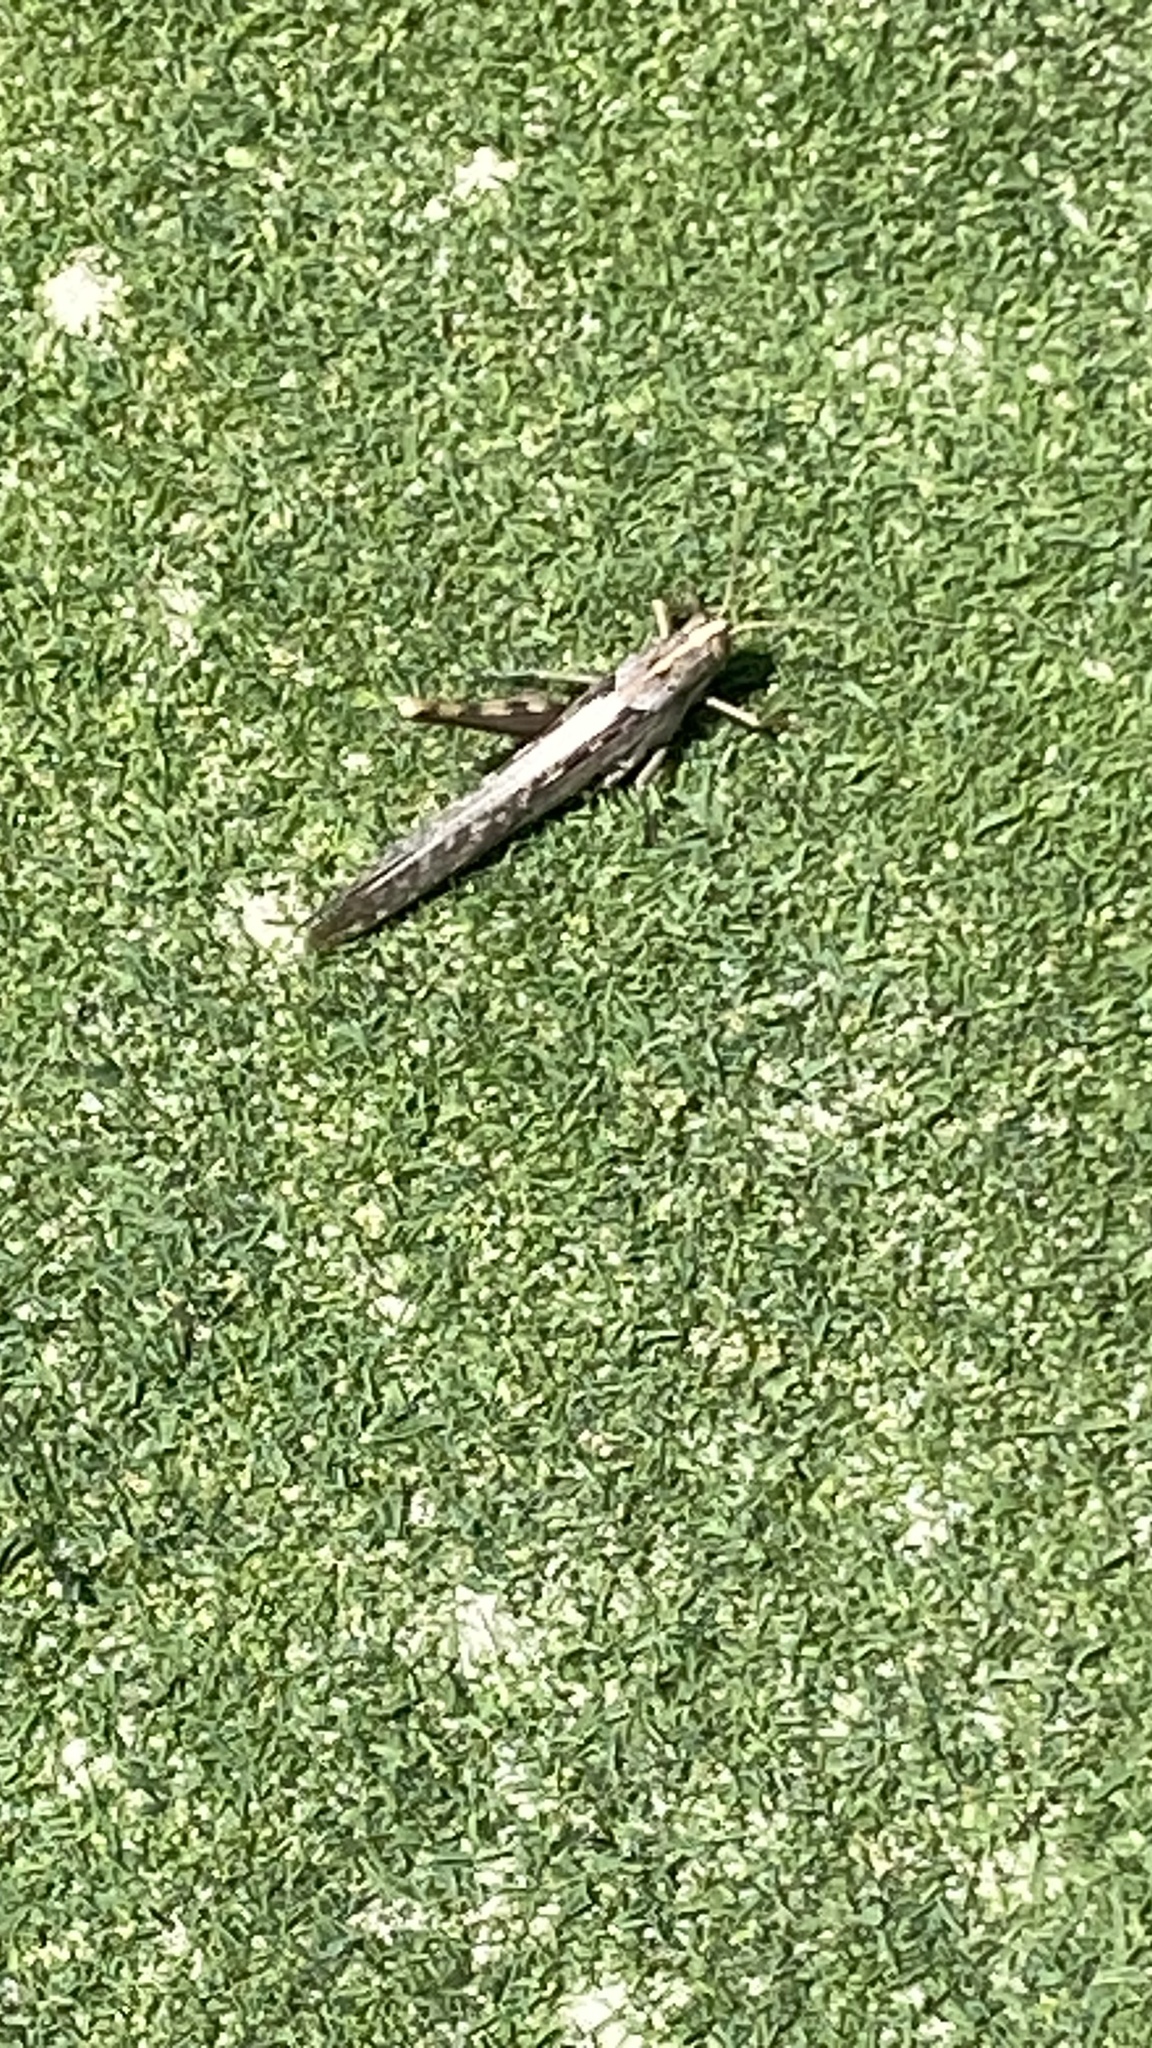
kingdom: Animalia
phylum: Arthropoda
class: Insecta
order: Orthoptera
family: Acrididae
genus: Schistocerca
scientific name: Schistocerca nitens
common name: Vagrant grasshopper
